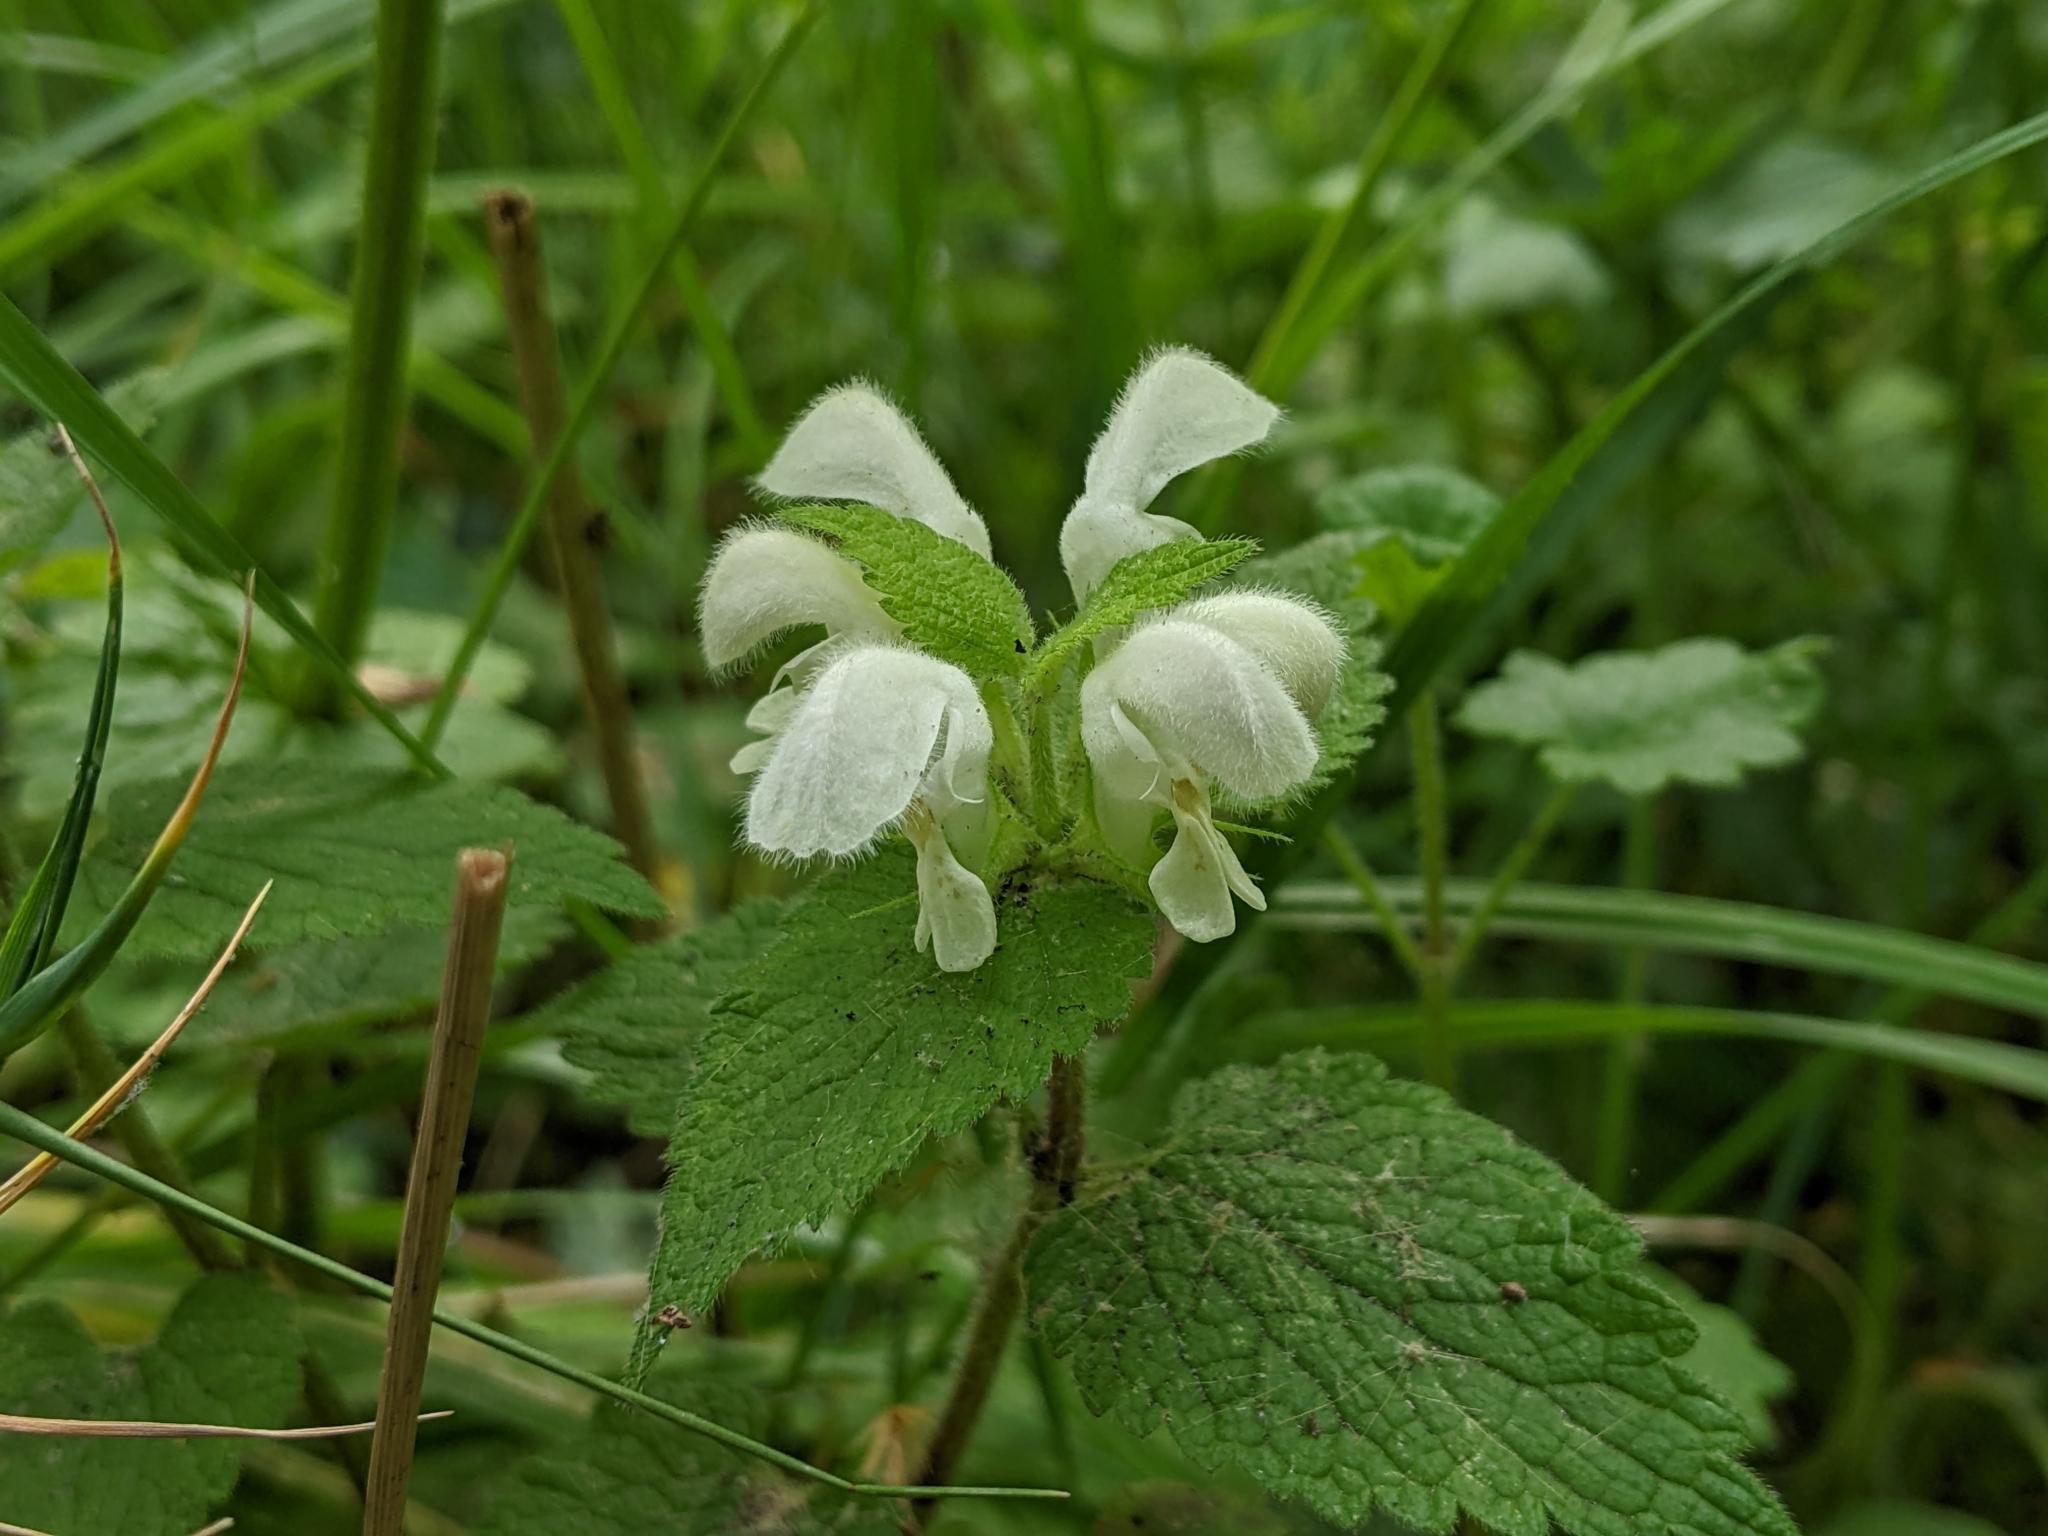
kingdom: Plantae
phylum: Tracheophyta
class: Magnoliopsida
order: Lamiales
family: Lamiaceae
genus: Lamium
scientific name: Lamium album
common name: White dead-nettle
